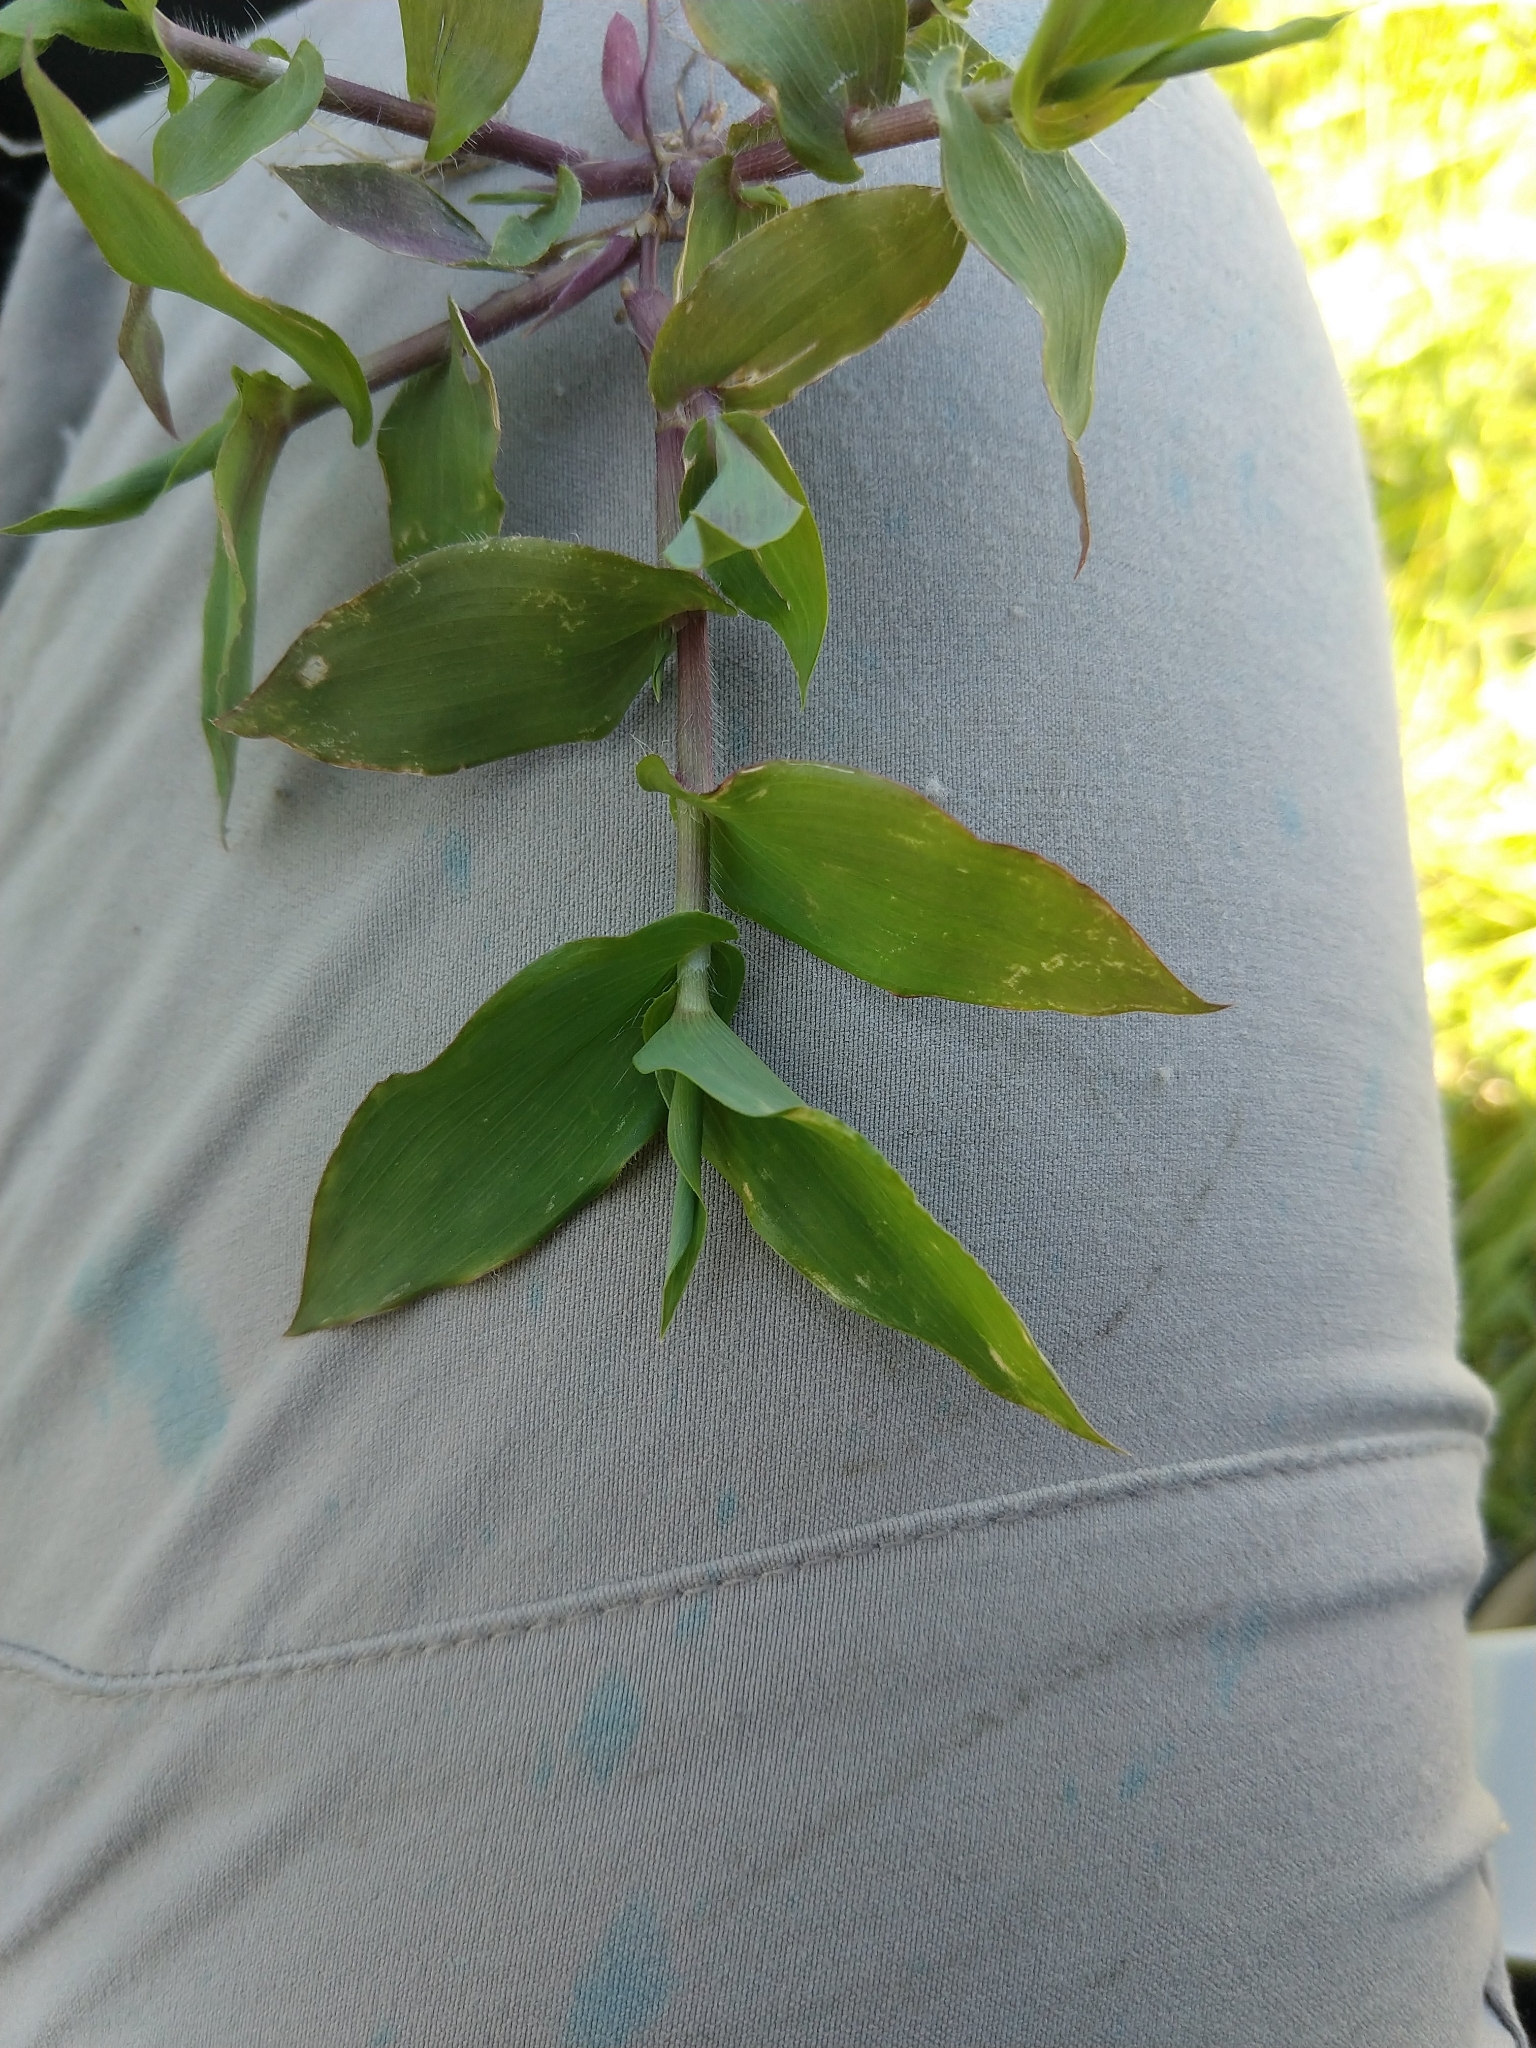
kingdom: Plantae
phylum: Tracheophyta
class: Liliopsida
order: Poales
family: Poaceae
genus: Arthraxon
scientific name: Arthraxon hispidus
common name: Small carpgrass
